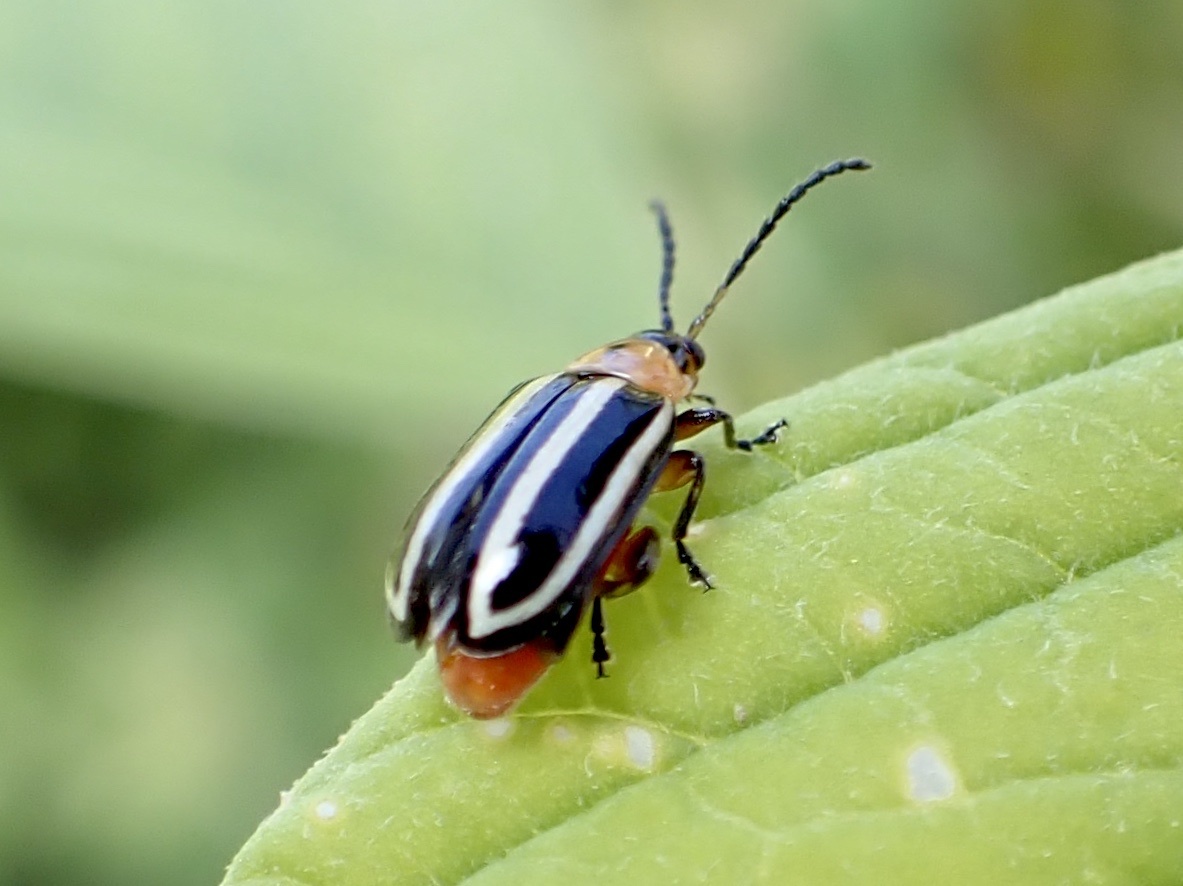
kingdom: Animalia
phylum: Arthropoda
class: Insecta
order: Coleoptera
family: Chrysomelidae
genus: Disonycha
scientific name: Disonycha glabrata
